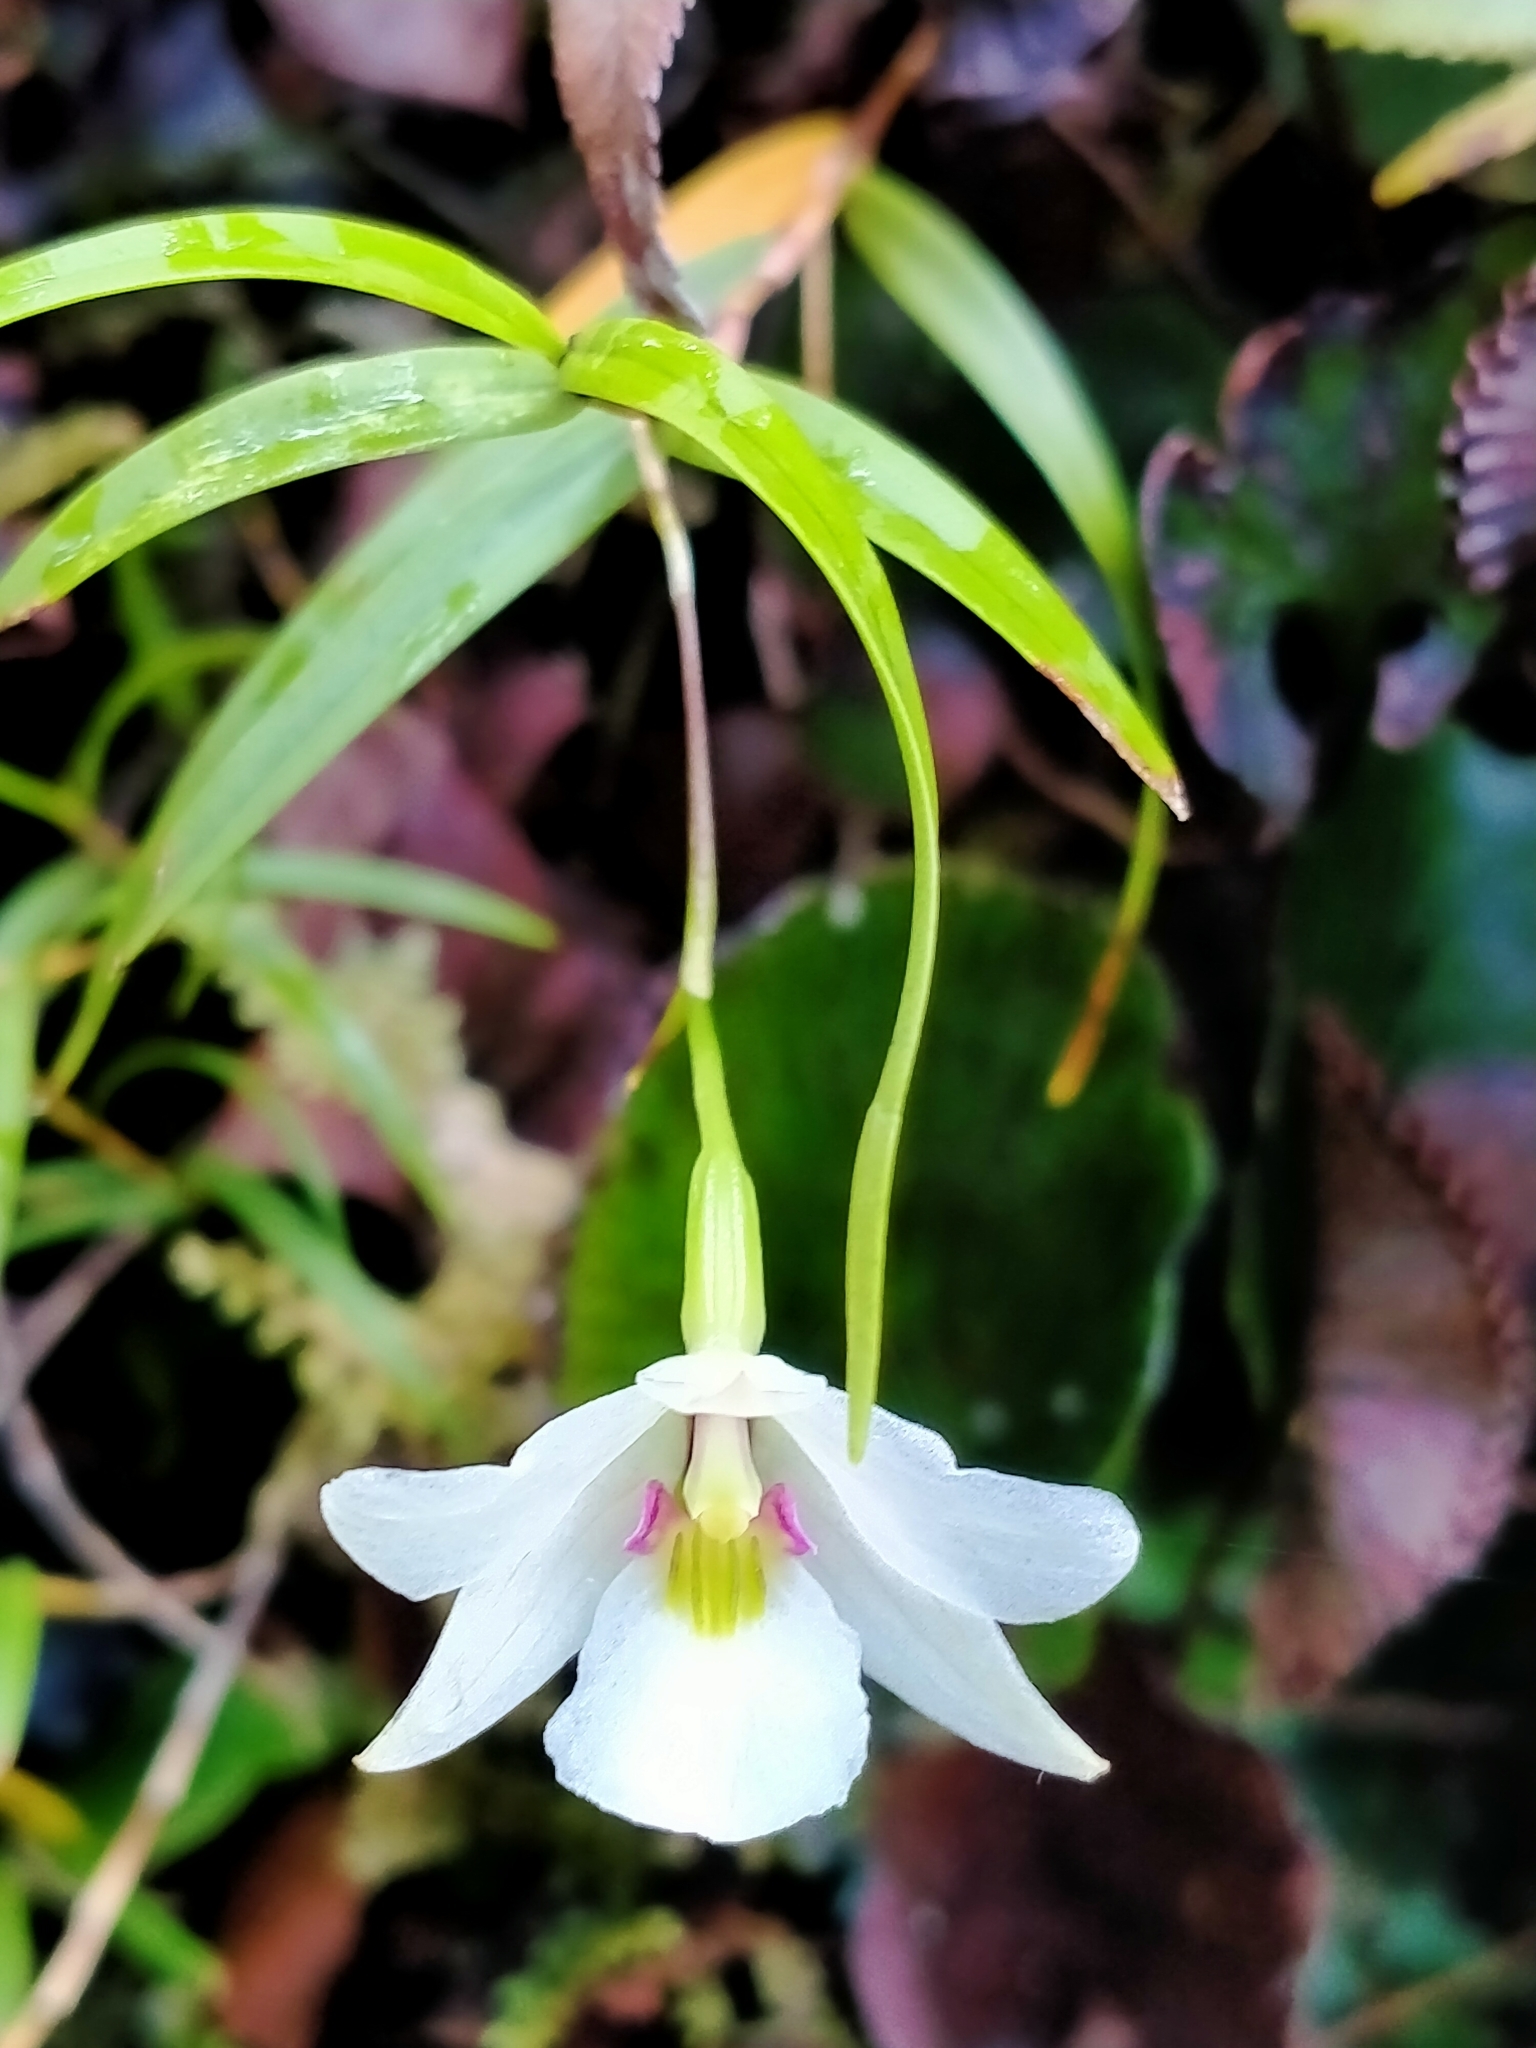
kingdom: Plantae
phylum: Tracheophyta
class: Liliopsida
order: Asparagales
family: Orchidaceae
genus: Dendrobium
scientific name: Dendrobium cunninghamii
